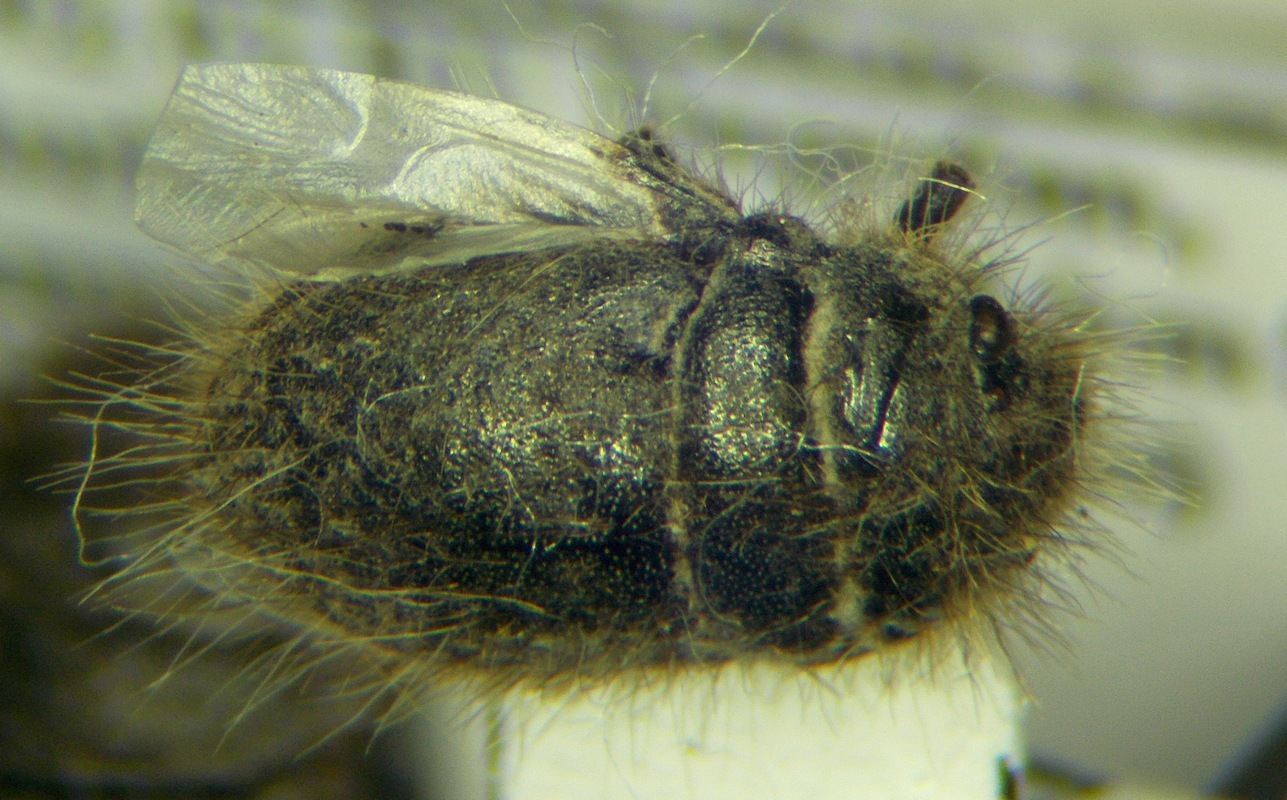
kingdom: Animalia
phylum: Arthropoda
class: Insecta
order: Hemiptera
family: Scutelleridae
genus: Irochrotus
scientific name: Irochrotus lanatus
